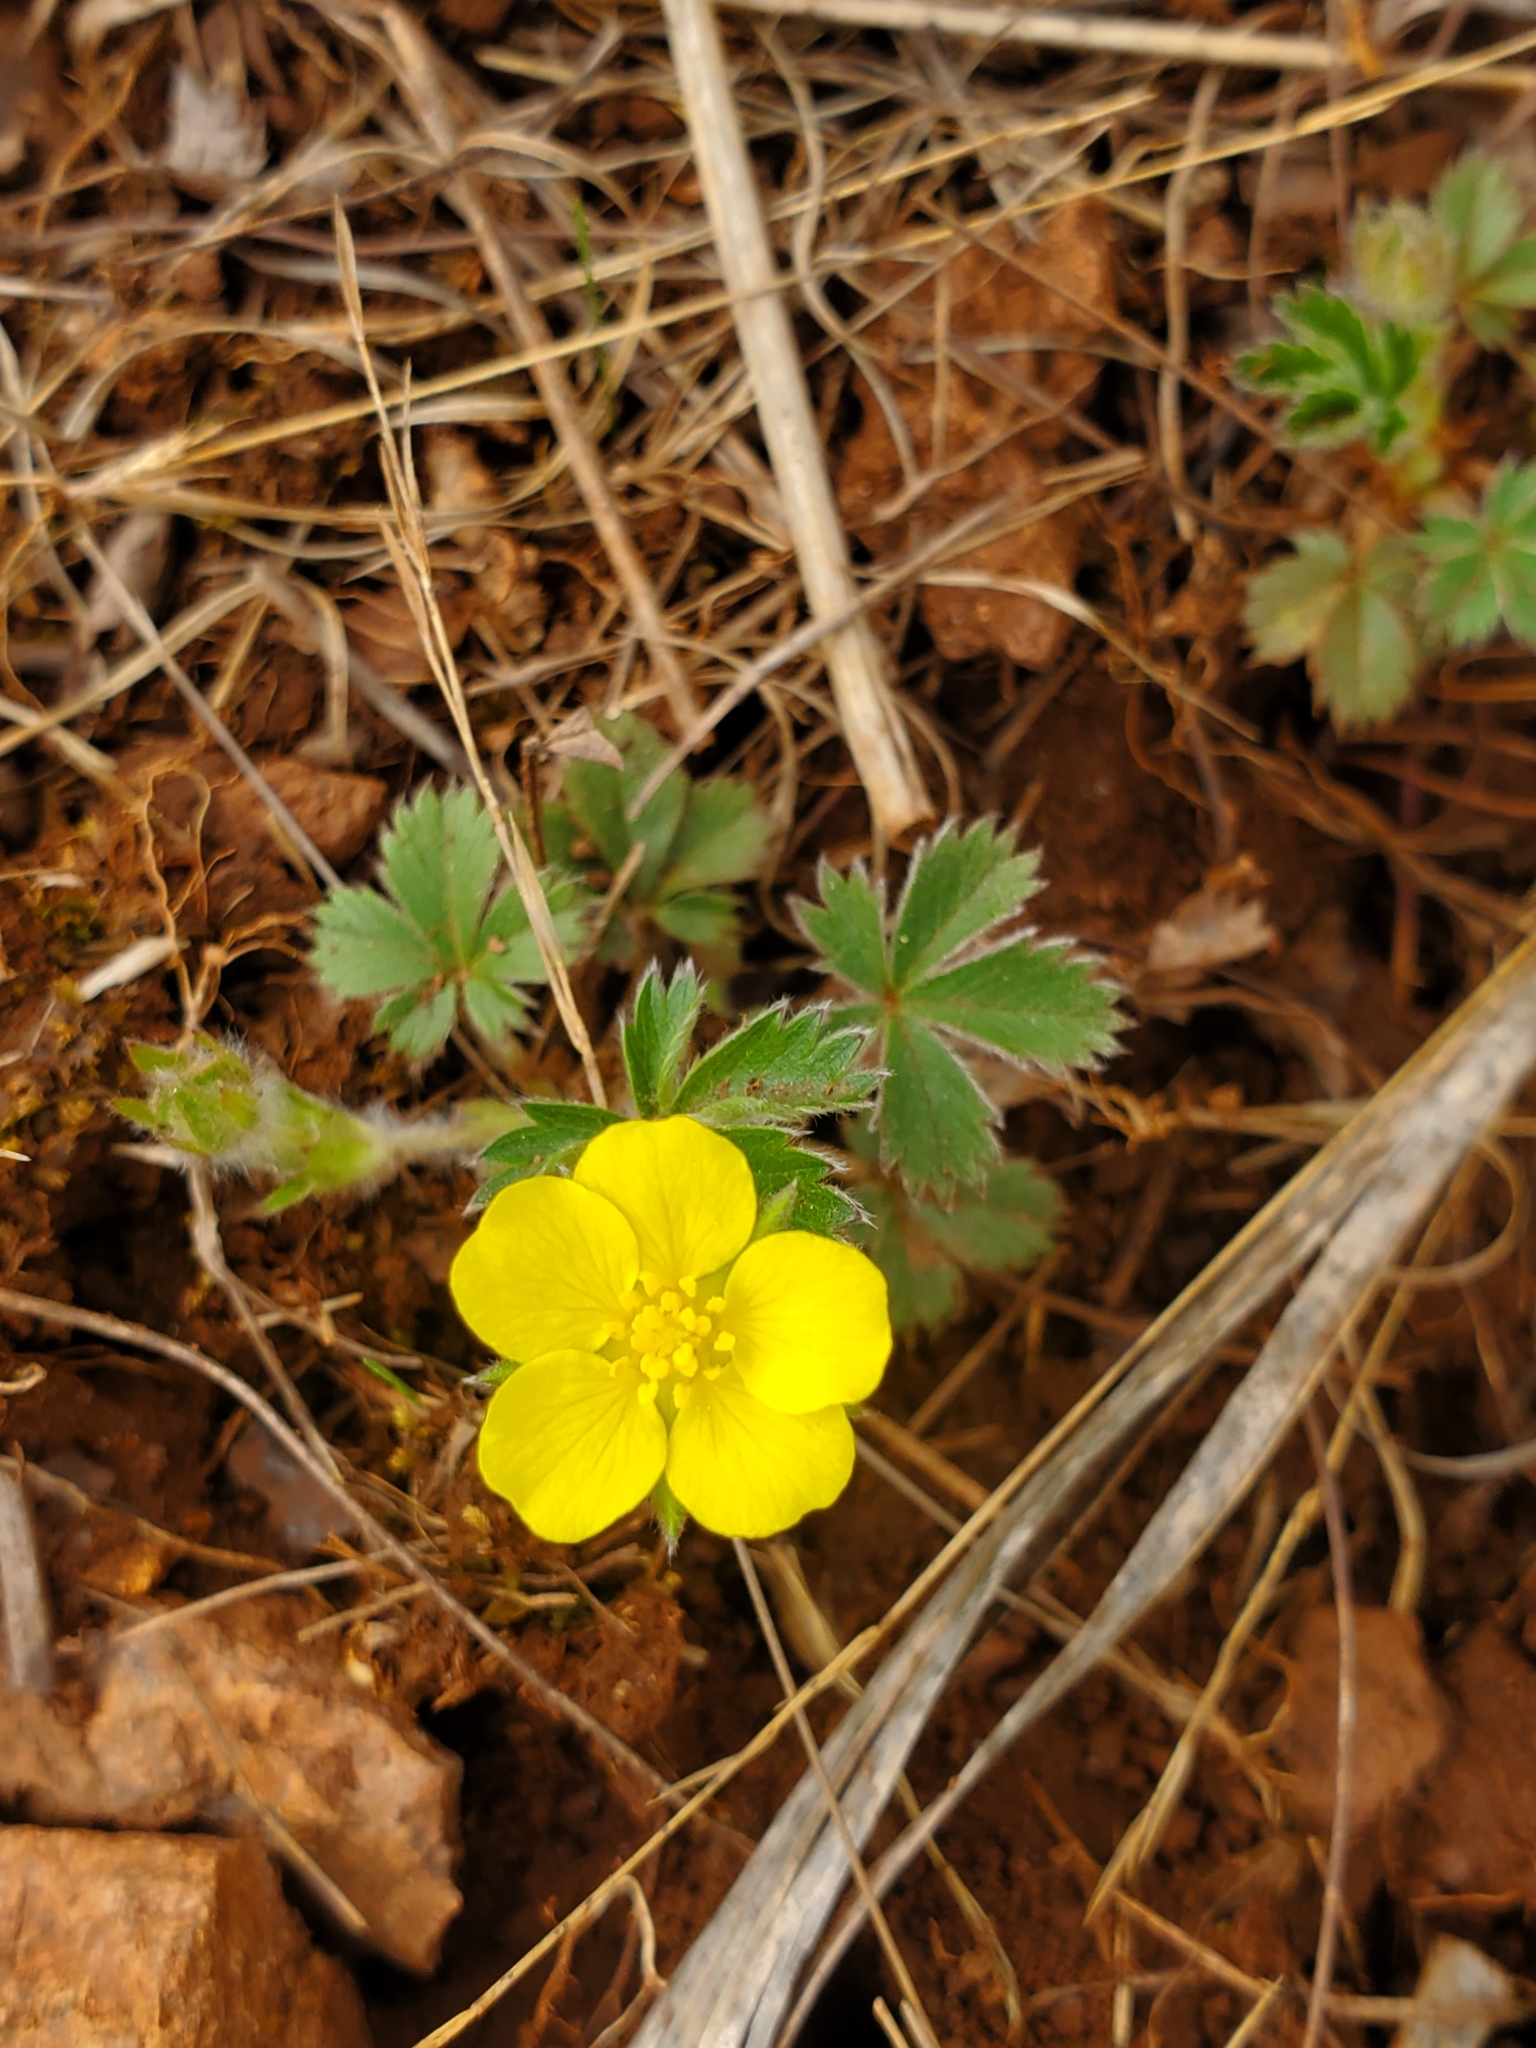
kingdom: Plantae
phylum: Tracheophyta
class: Magnoliopsida
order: Rosales
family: Rosaceae
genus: Potentilla
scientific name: Potentilla canadensis
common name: Canada cinquefoil
